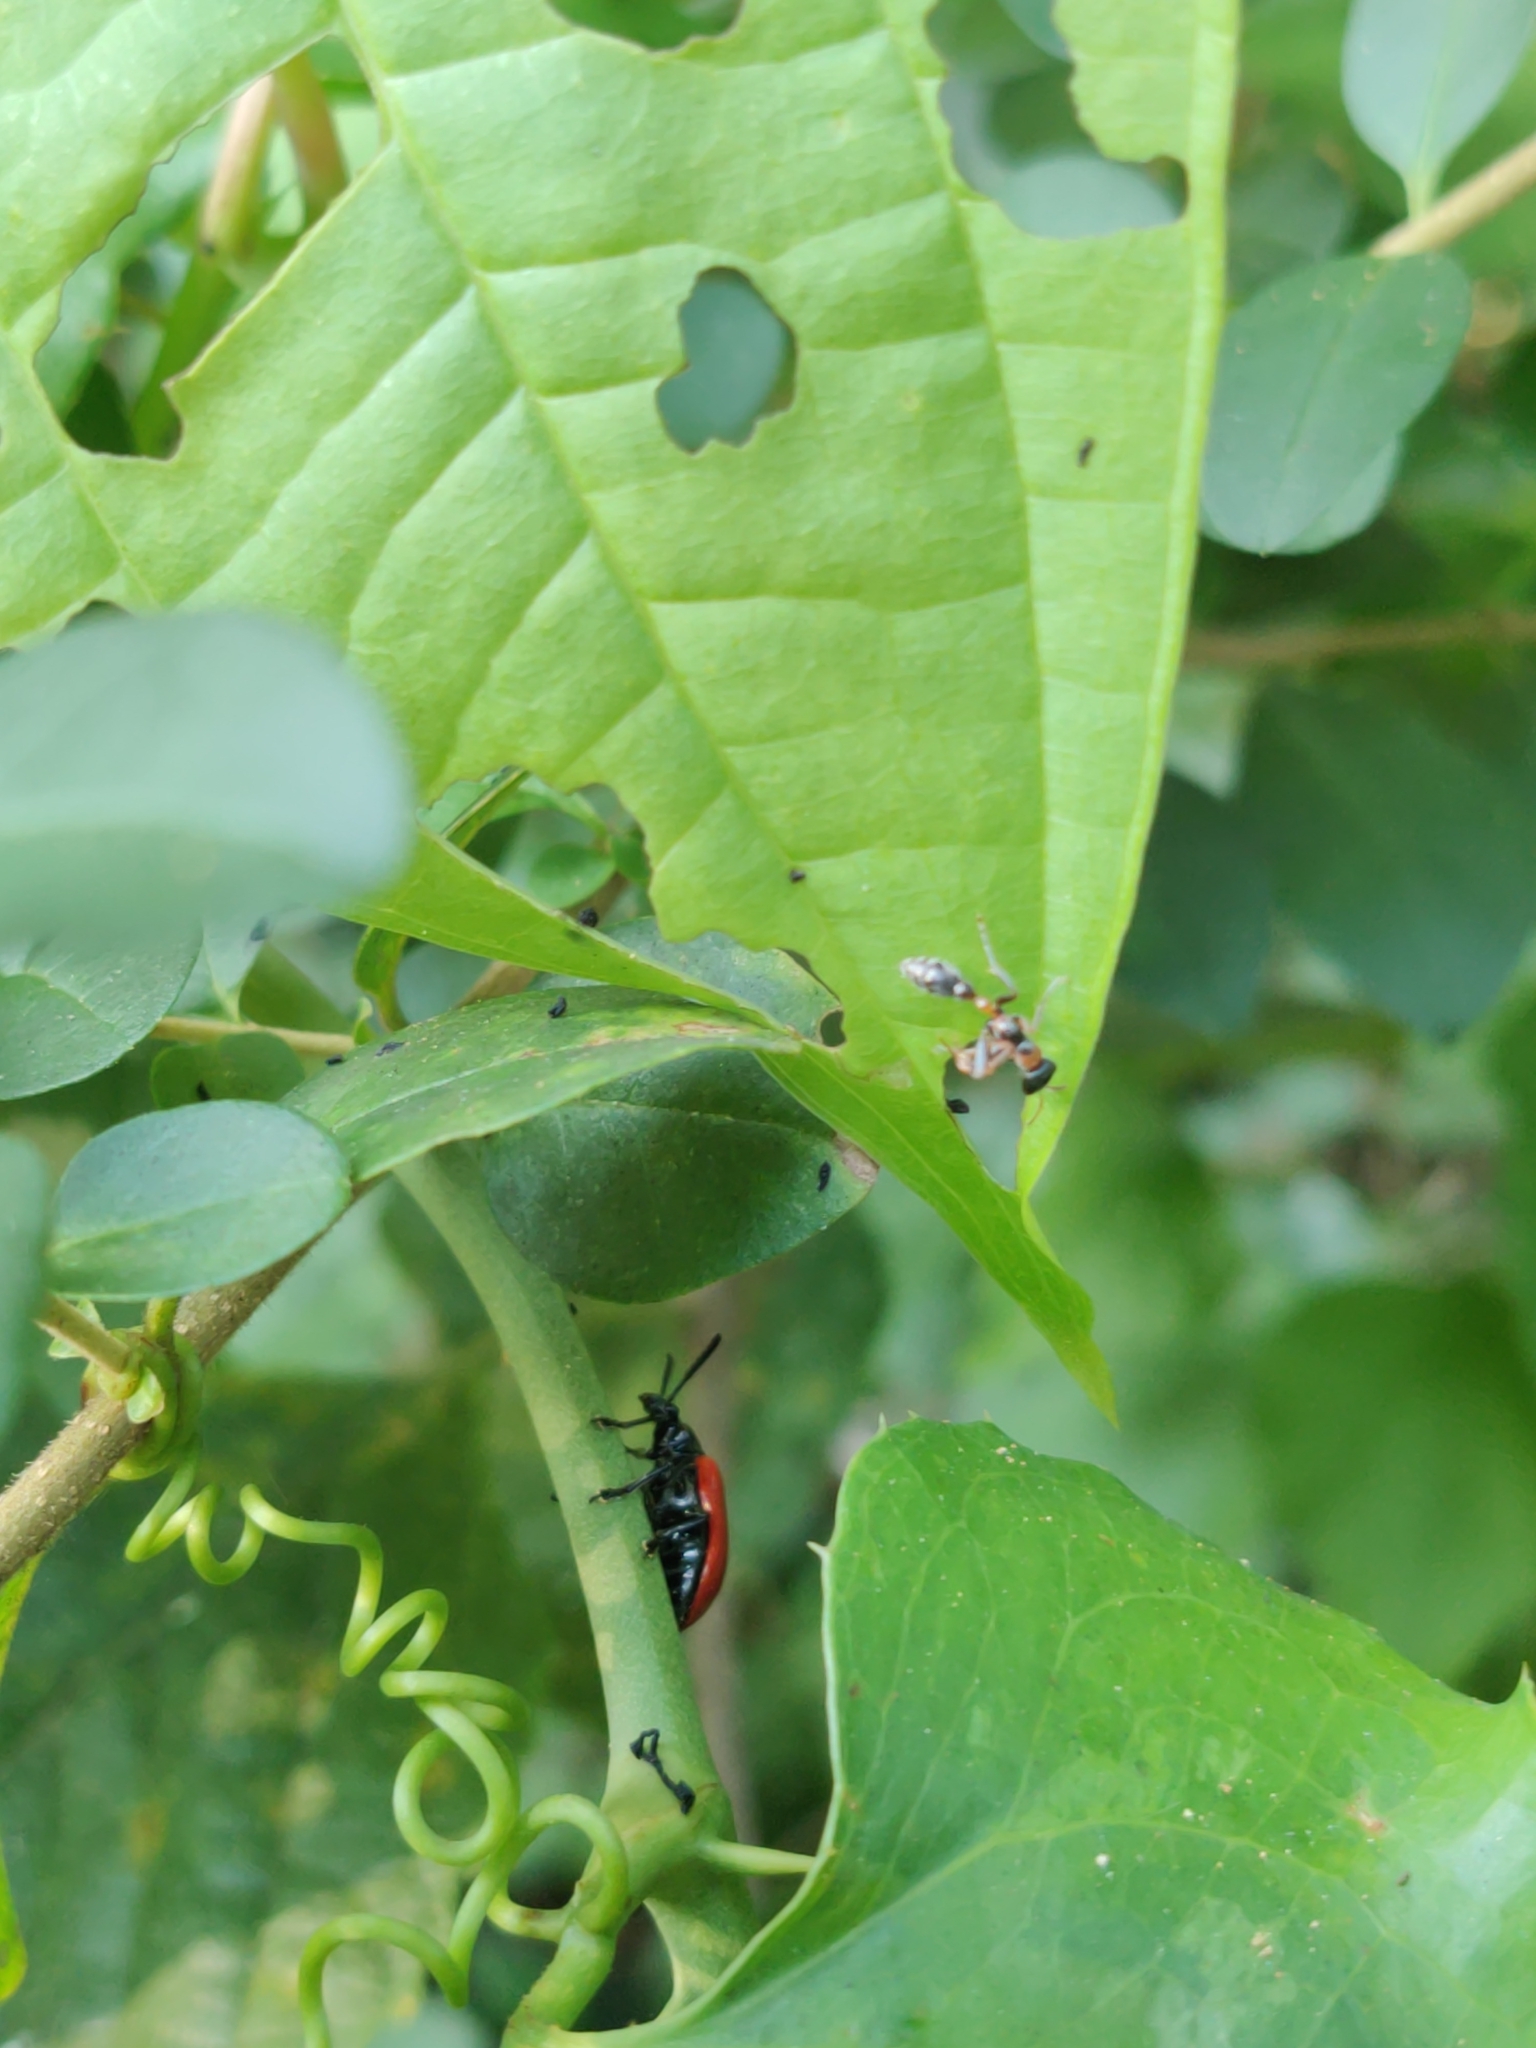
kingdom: Animalia
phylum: Arthropoda
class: Insecta
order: Coleoptera
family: Chrysomelidae
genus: Lilioceris
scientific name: Lilioceris cheni
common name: Leaf beetle
